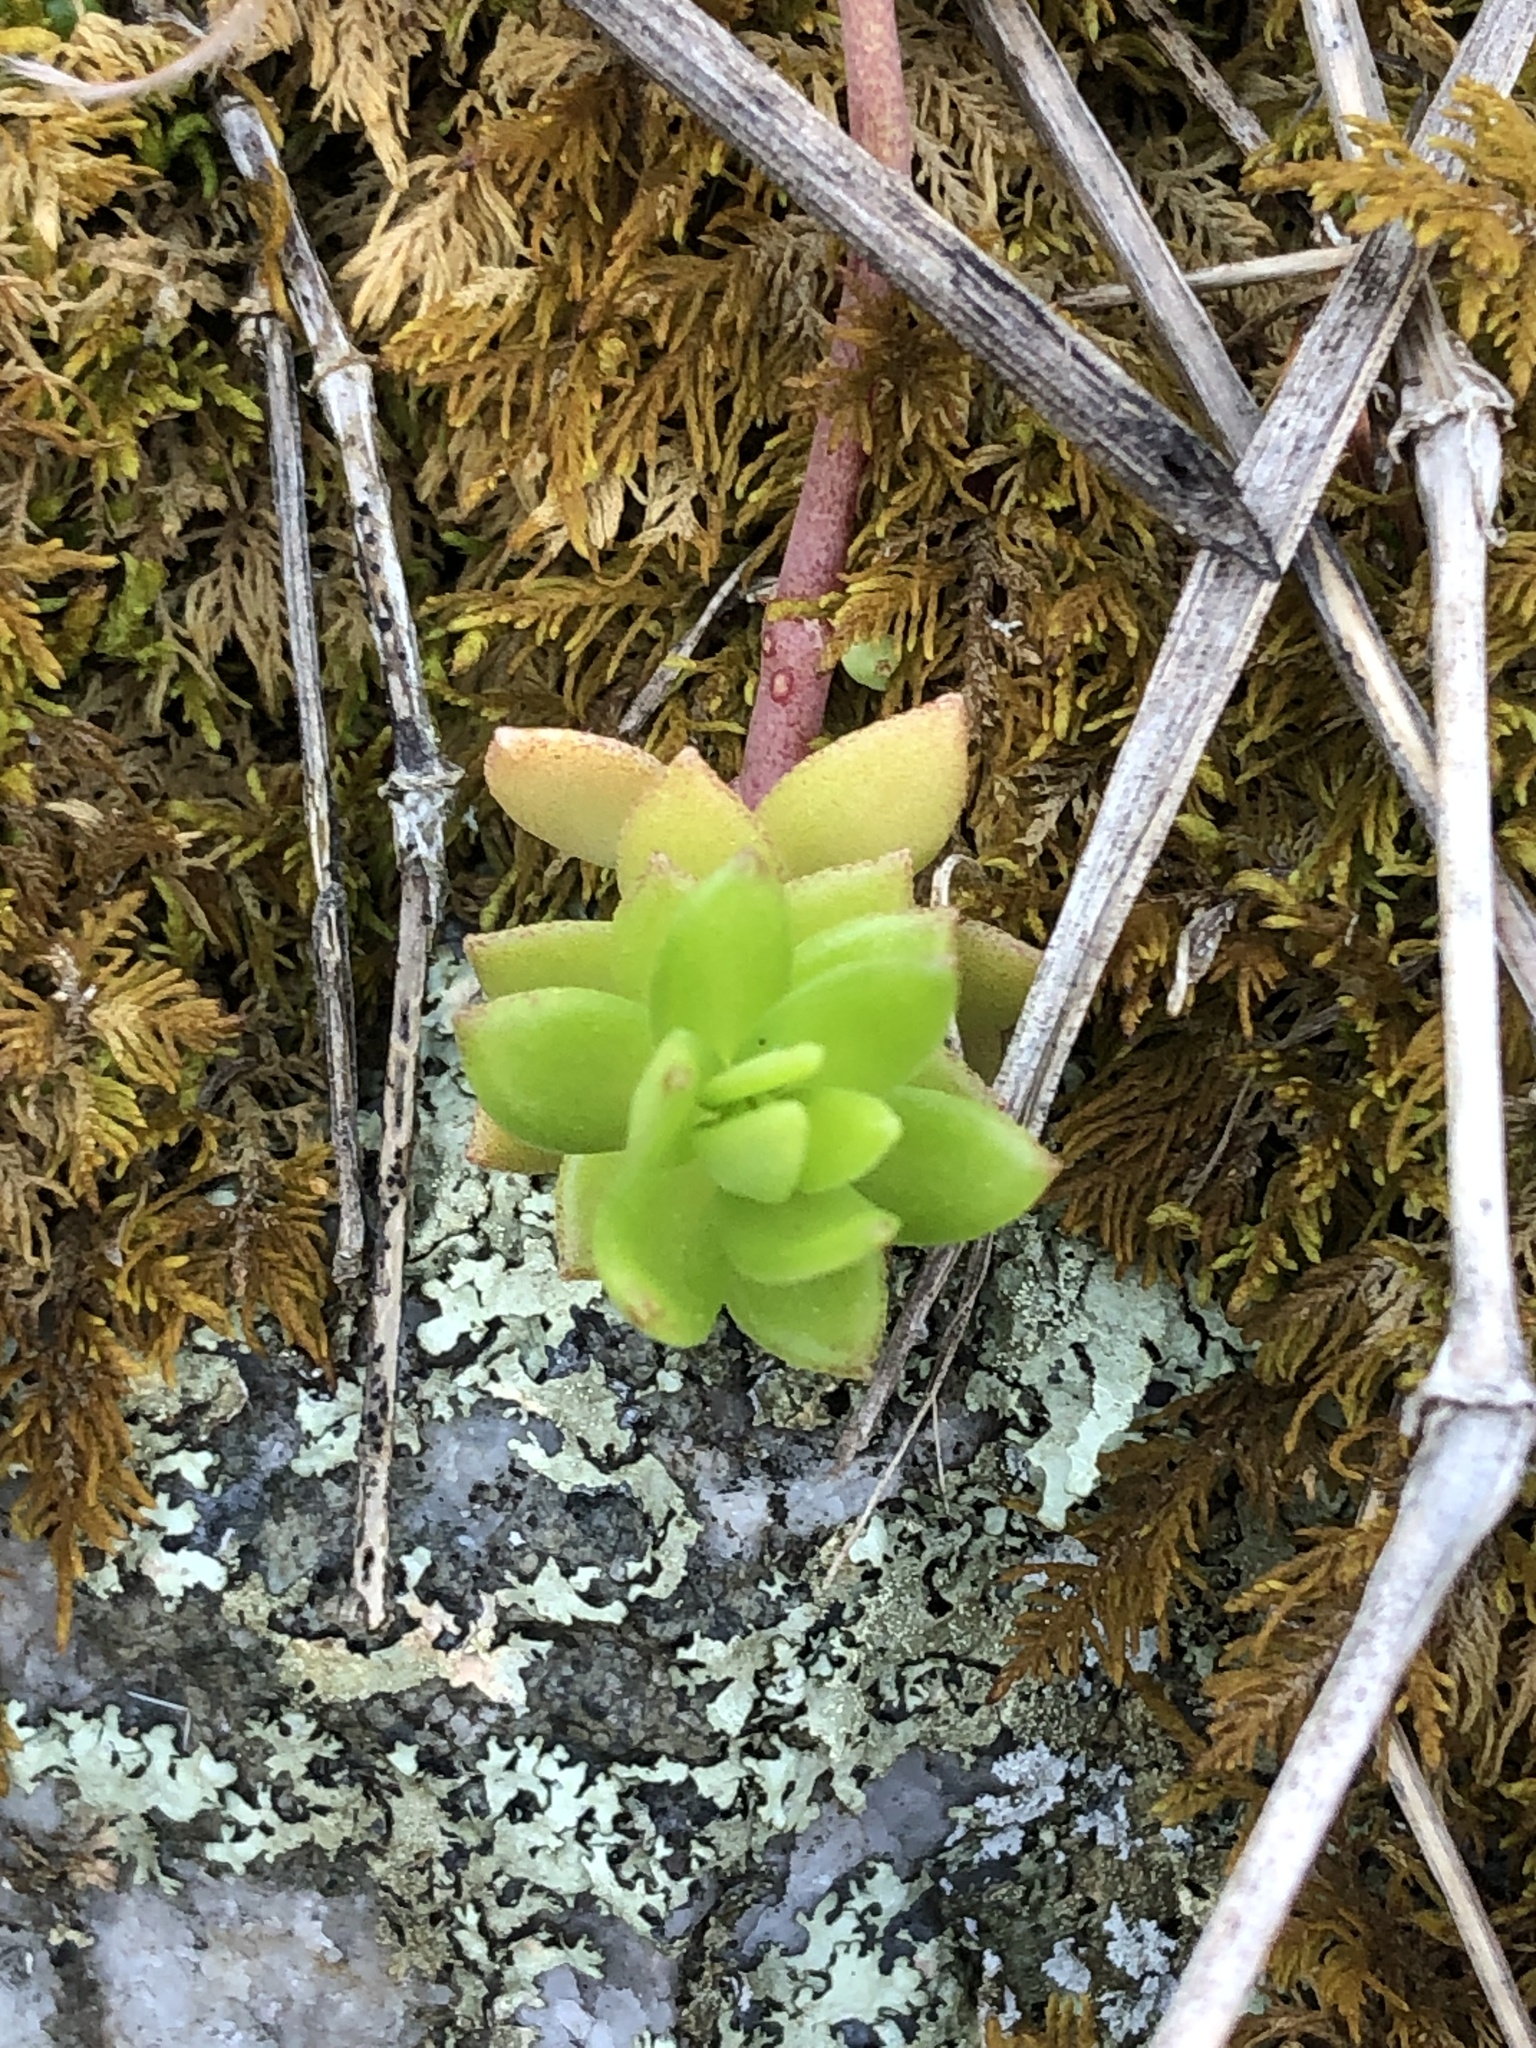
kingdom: Plantae
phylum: Tracheophyta
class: Magnoliopsida
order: Saxifragales
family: Crassulaceae
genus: Sedum
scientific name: Sedum sarmentosum
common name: Stringy stonecrop
